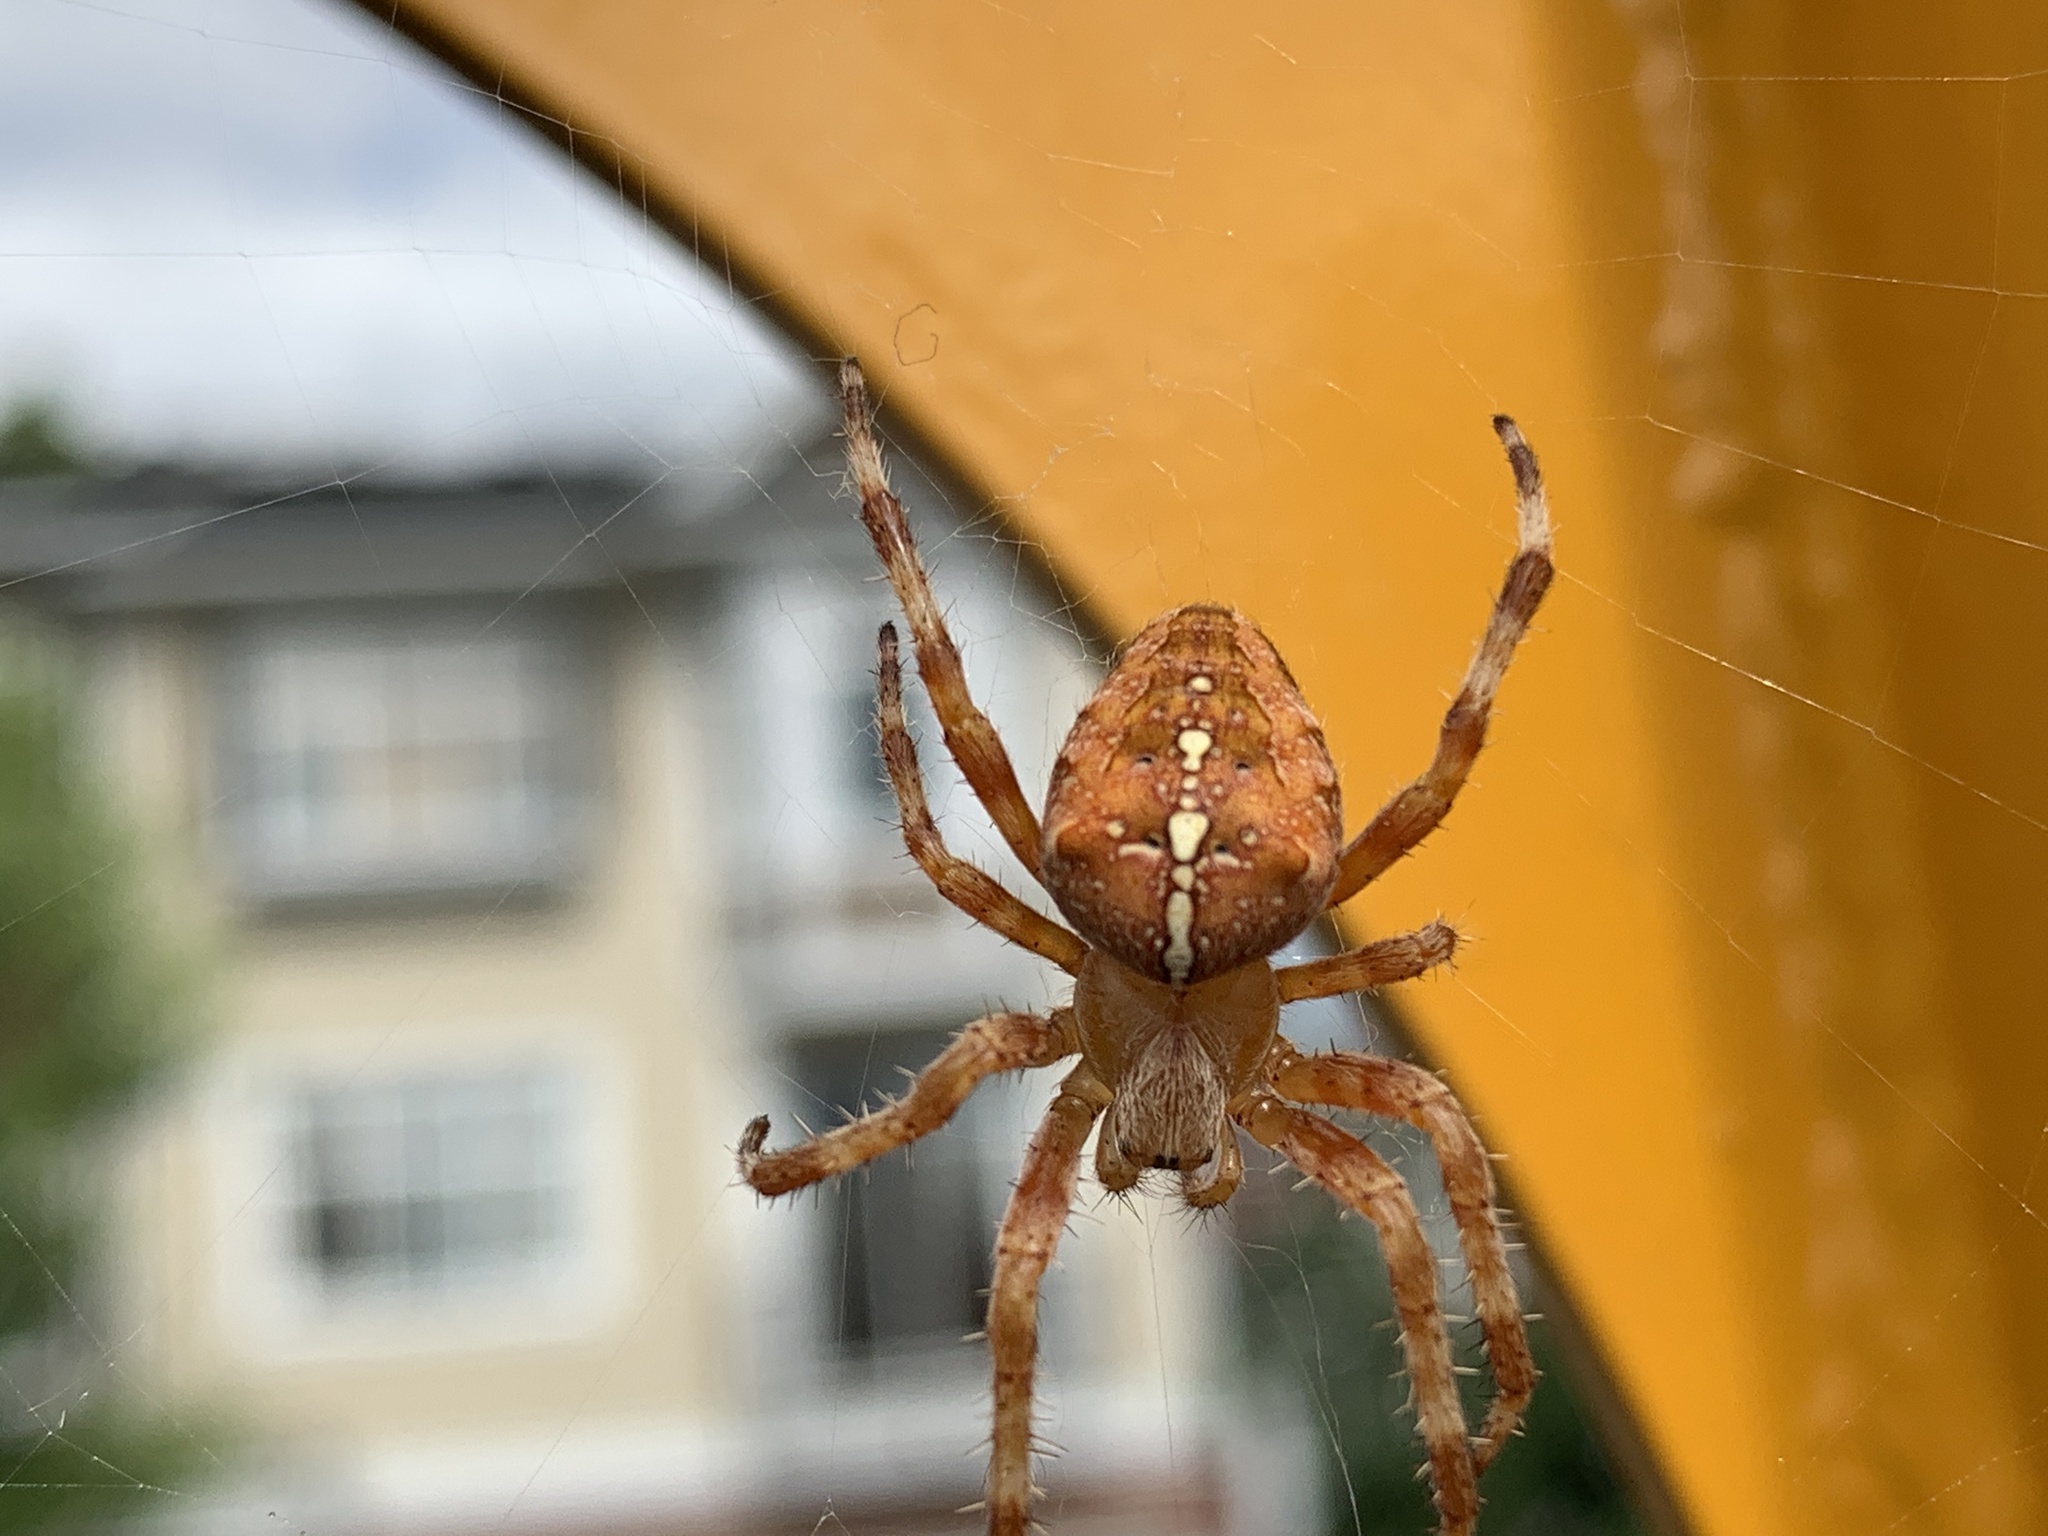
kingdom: Animalia
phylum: Arthropoda
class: Arachnida
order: Araneae
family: Araneidae
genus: Araneus
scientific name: Araneus diadematus
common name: Cross orbweaver
